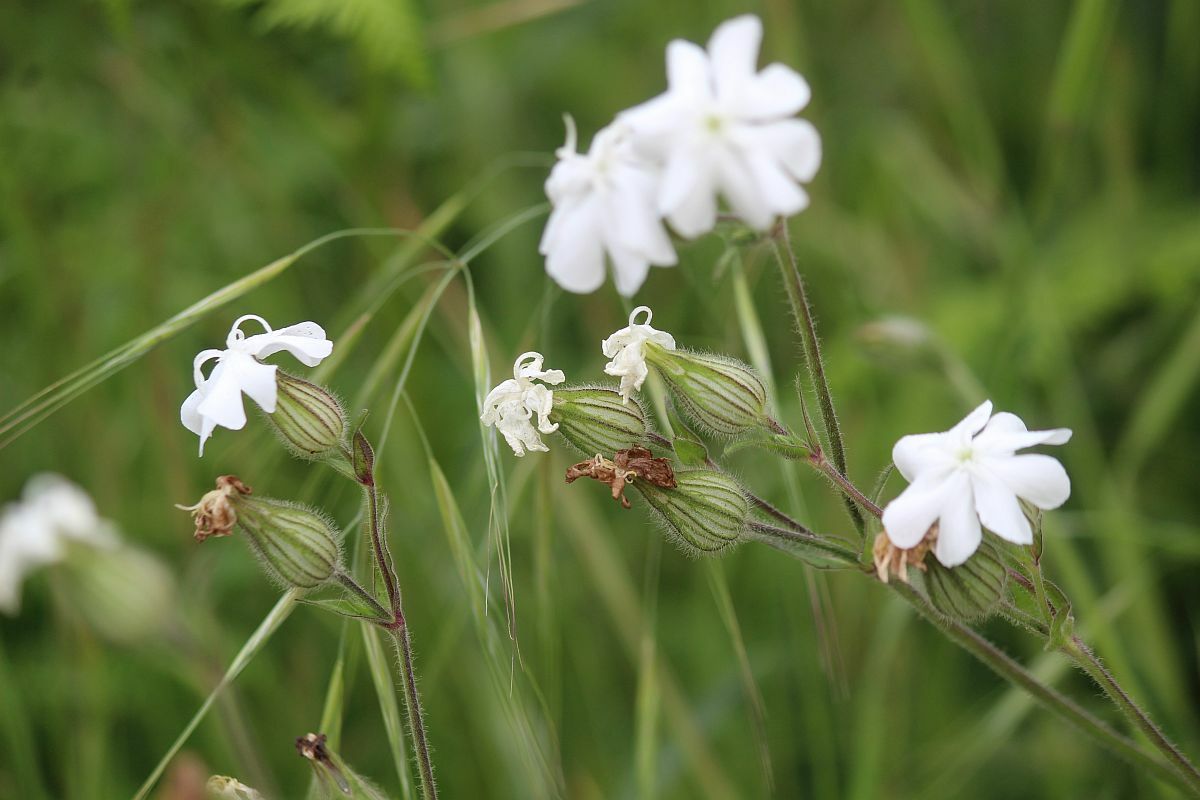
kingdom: Plantae
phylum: Tracheophyta
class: Magnoliopsida
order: Caryophyllales
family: Caryophyllaceae
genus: Silene
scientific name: Silene latifolia
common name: White campion
